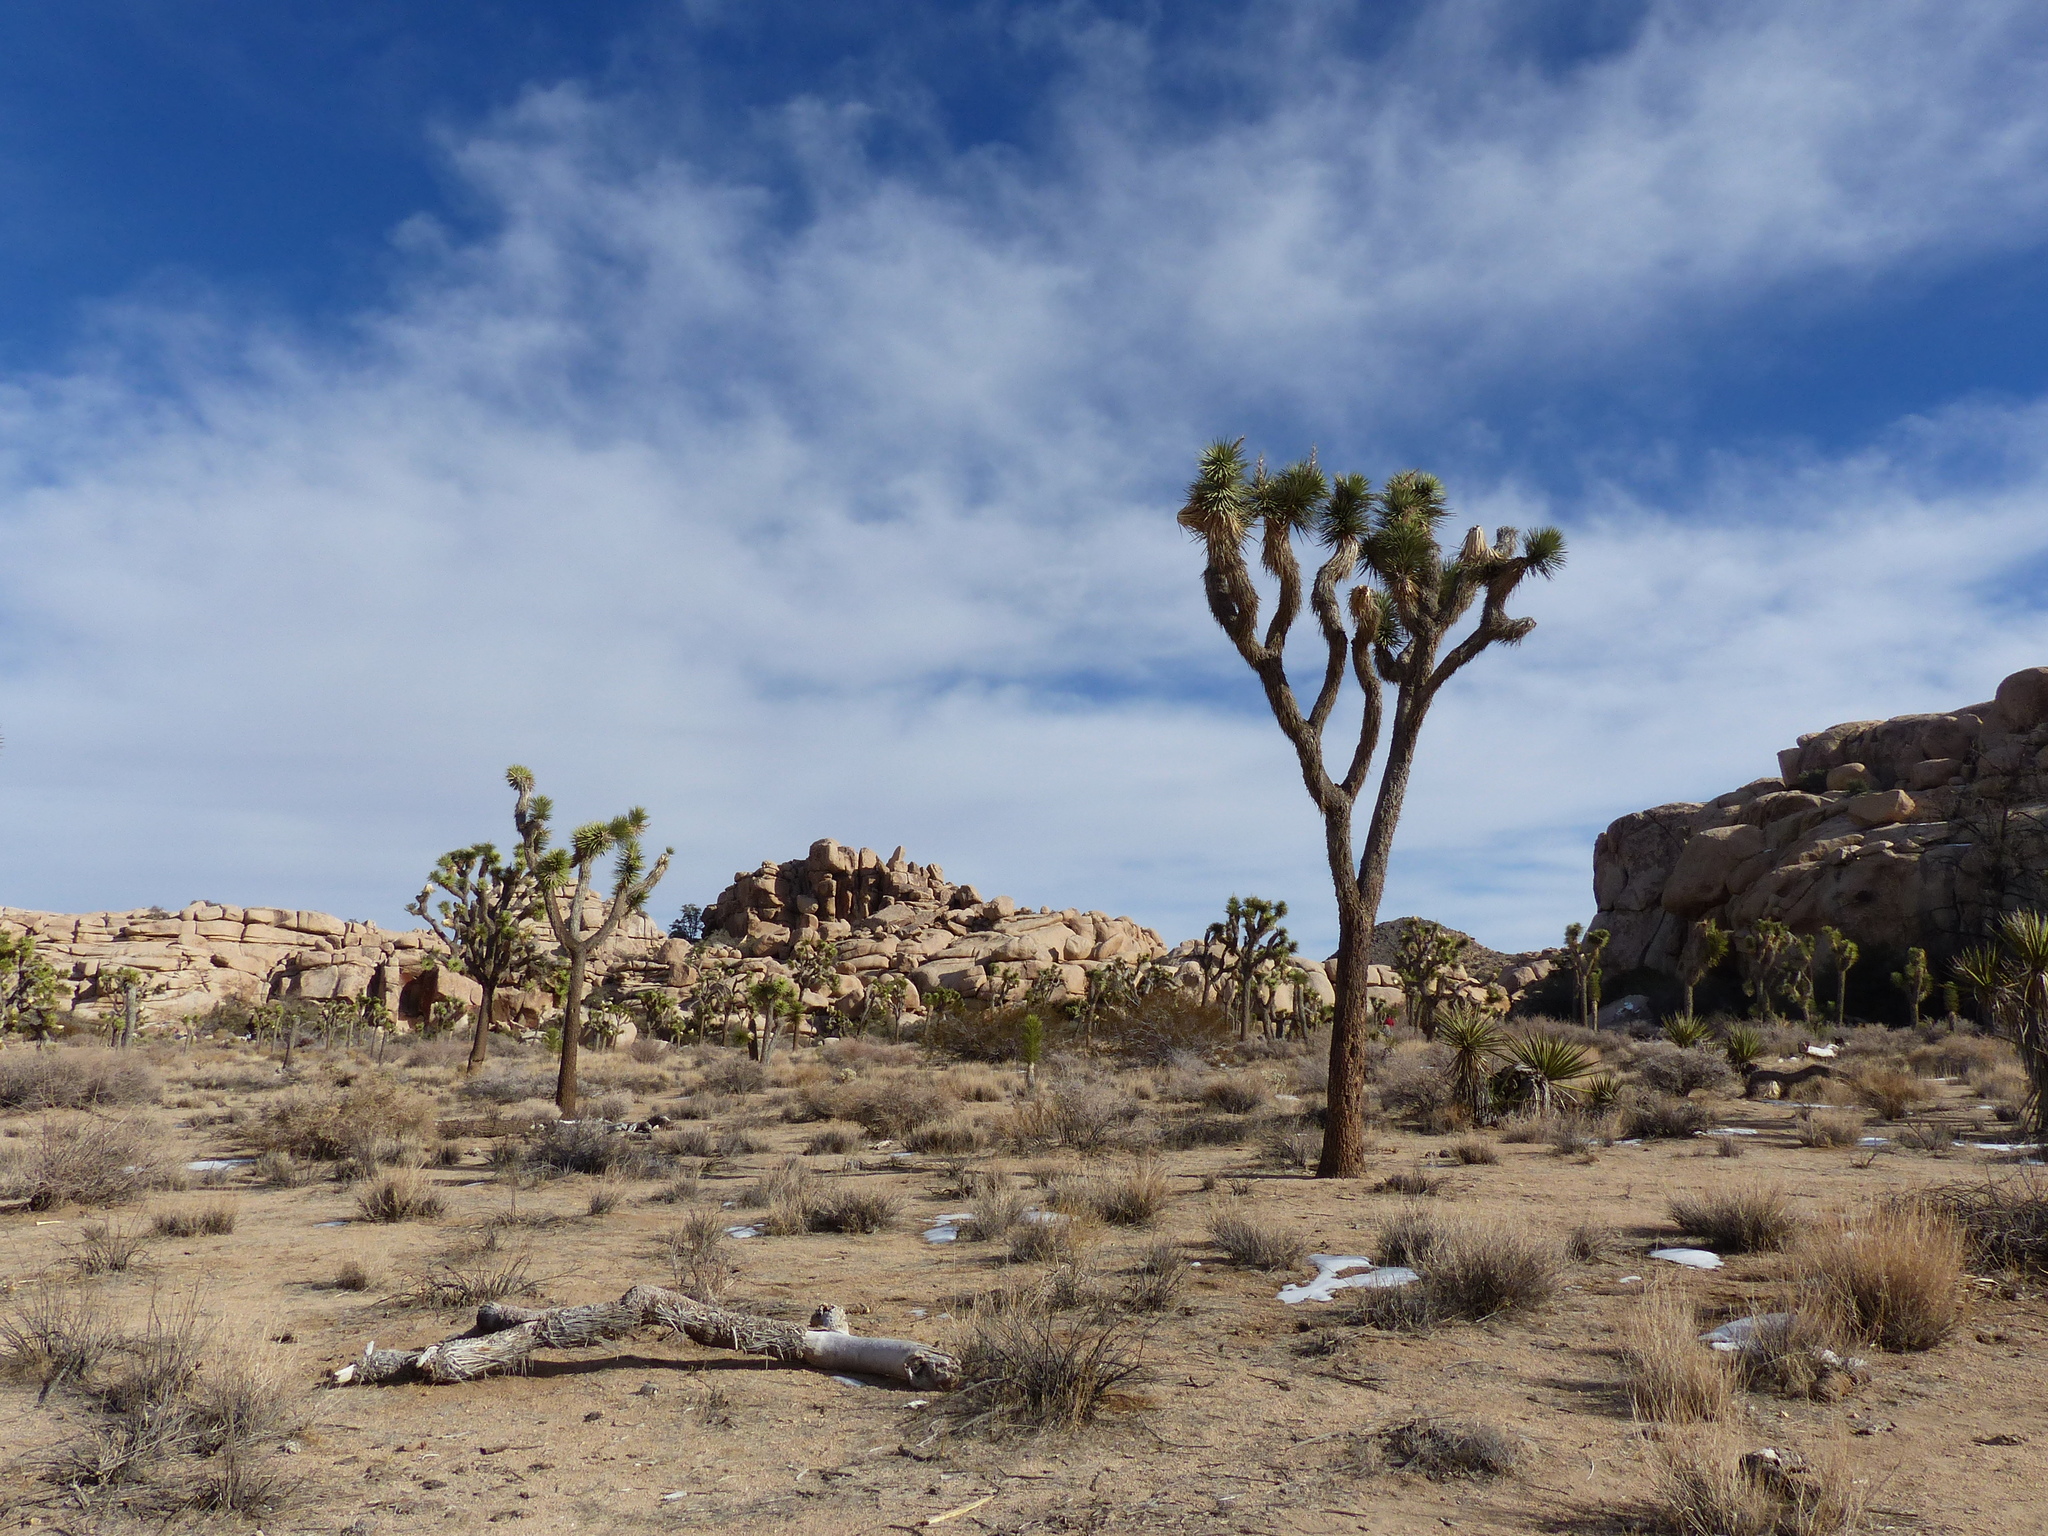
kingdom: Plantae
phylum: Tracheophyta
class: Liliopsida
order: Asparagales
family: Asparagaceae
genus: Yucca
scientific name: Yucca brevifolia
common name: Joshua tree
